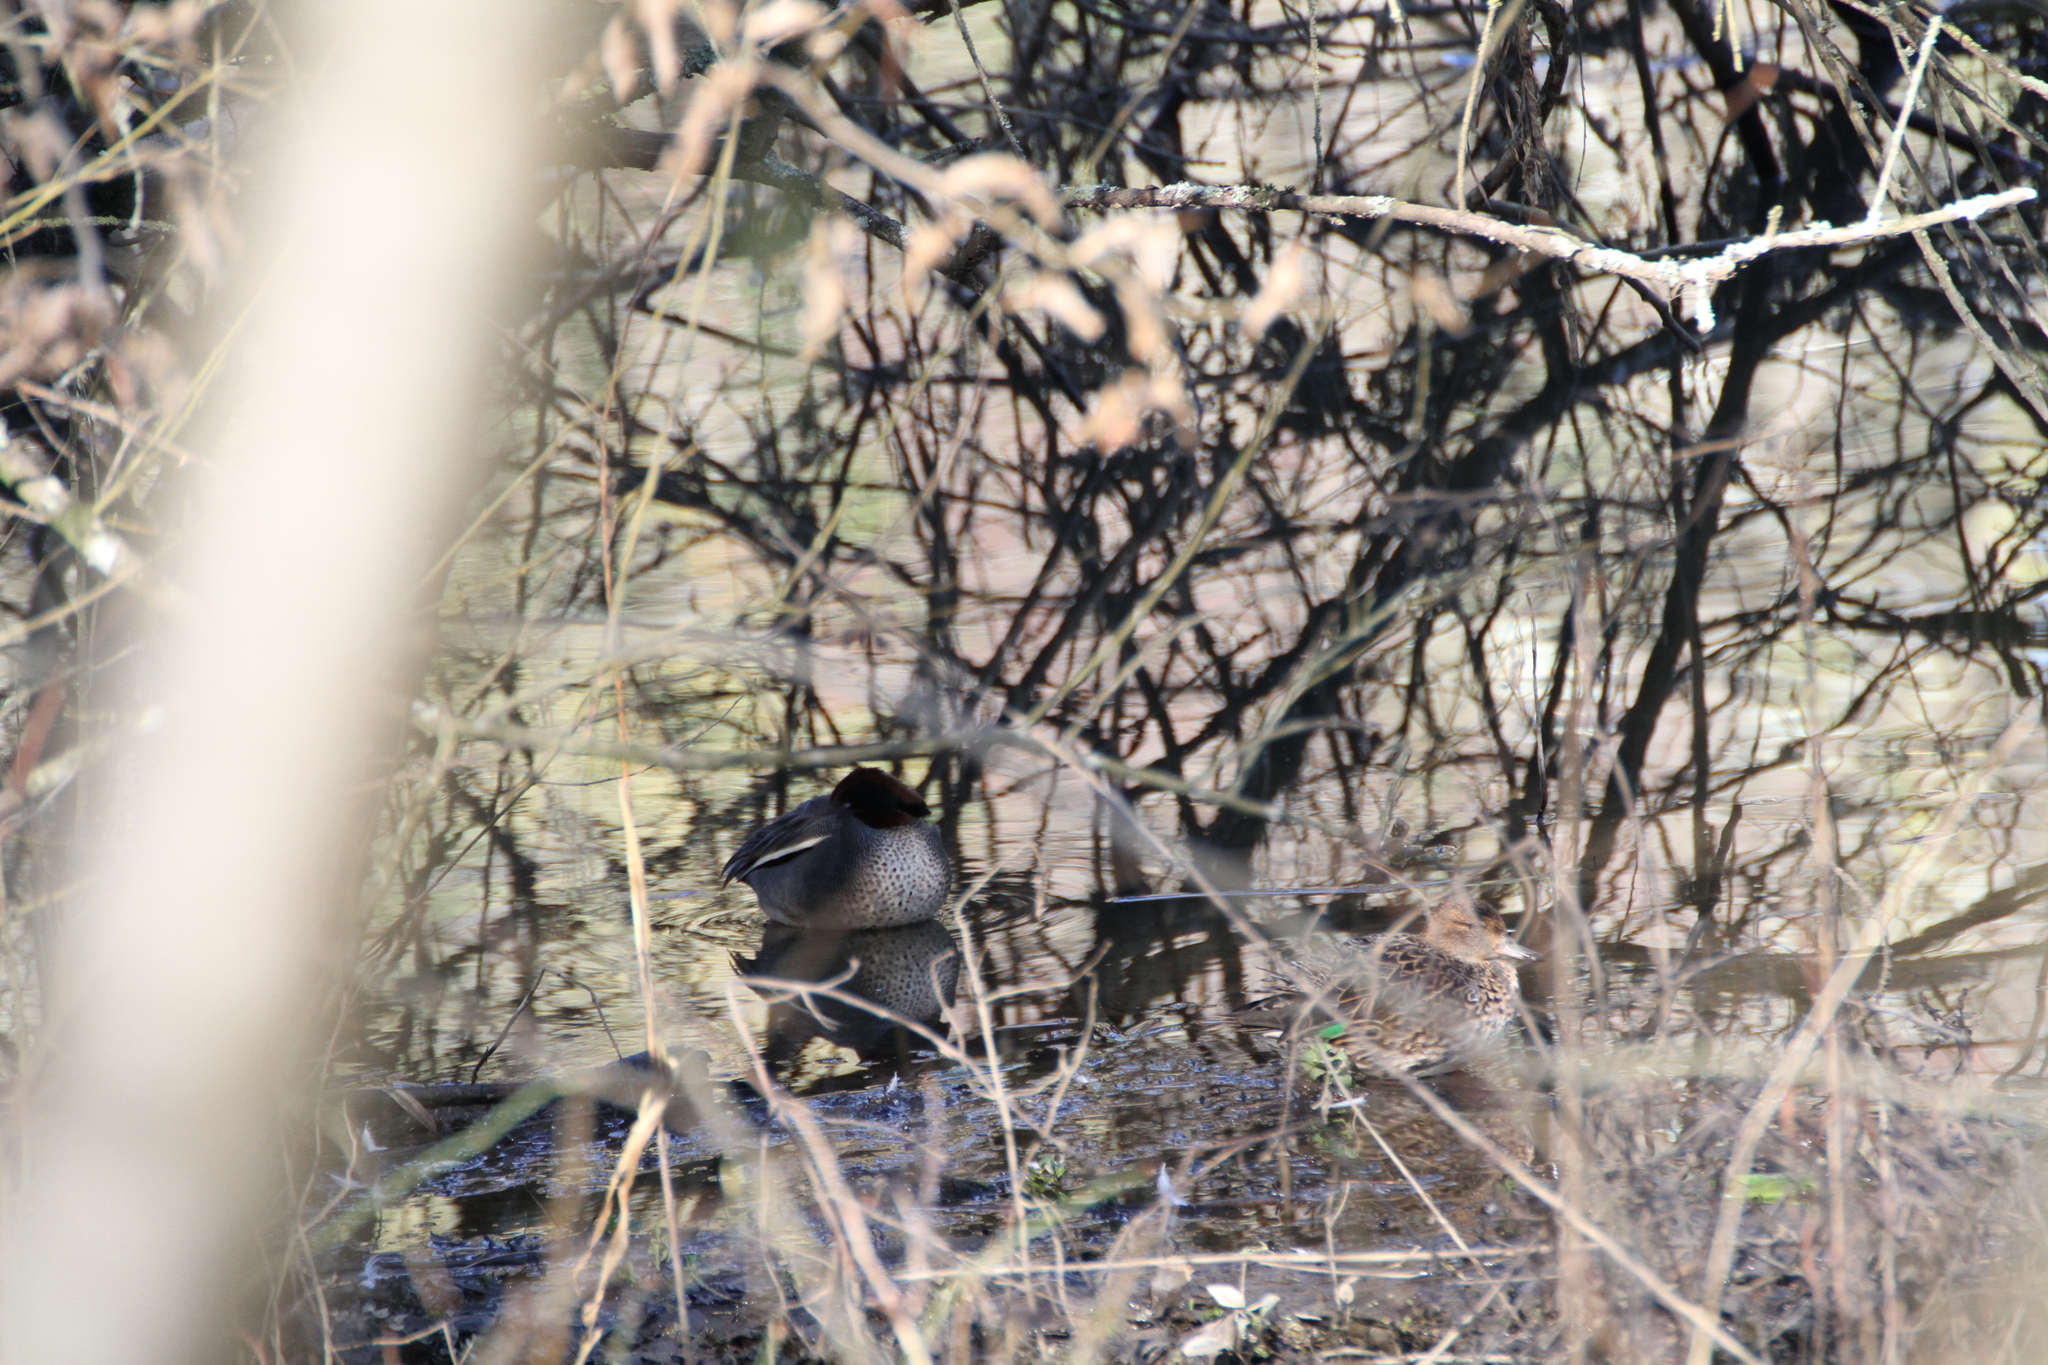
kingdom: Animalia
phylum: Chordata
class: Aves
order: Anseriformes
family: Anatidae
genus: Anas
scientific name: Anas crecca
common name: Eurasian teal
